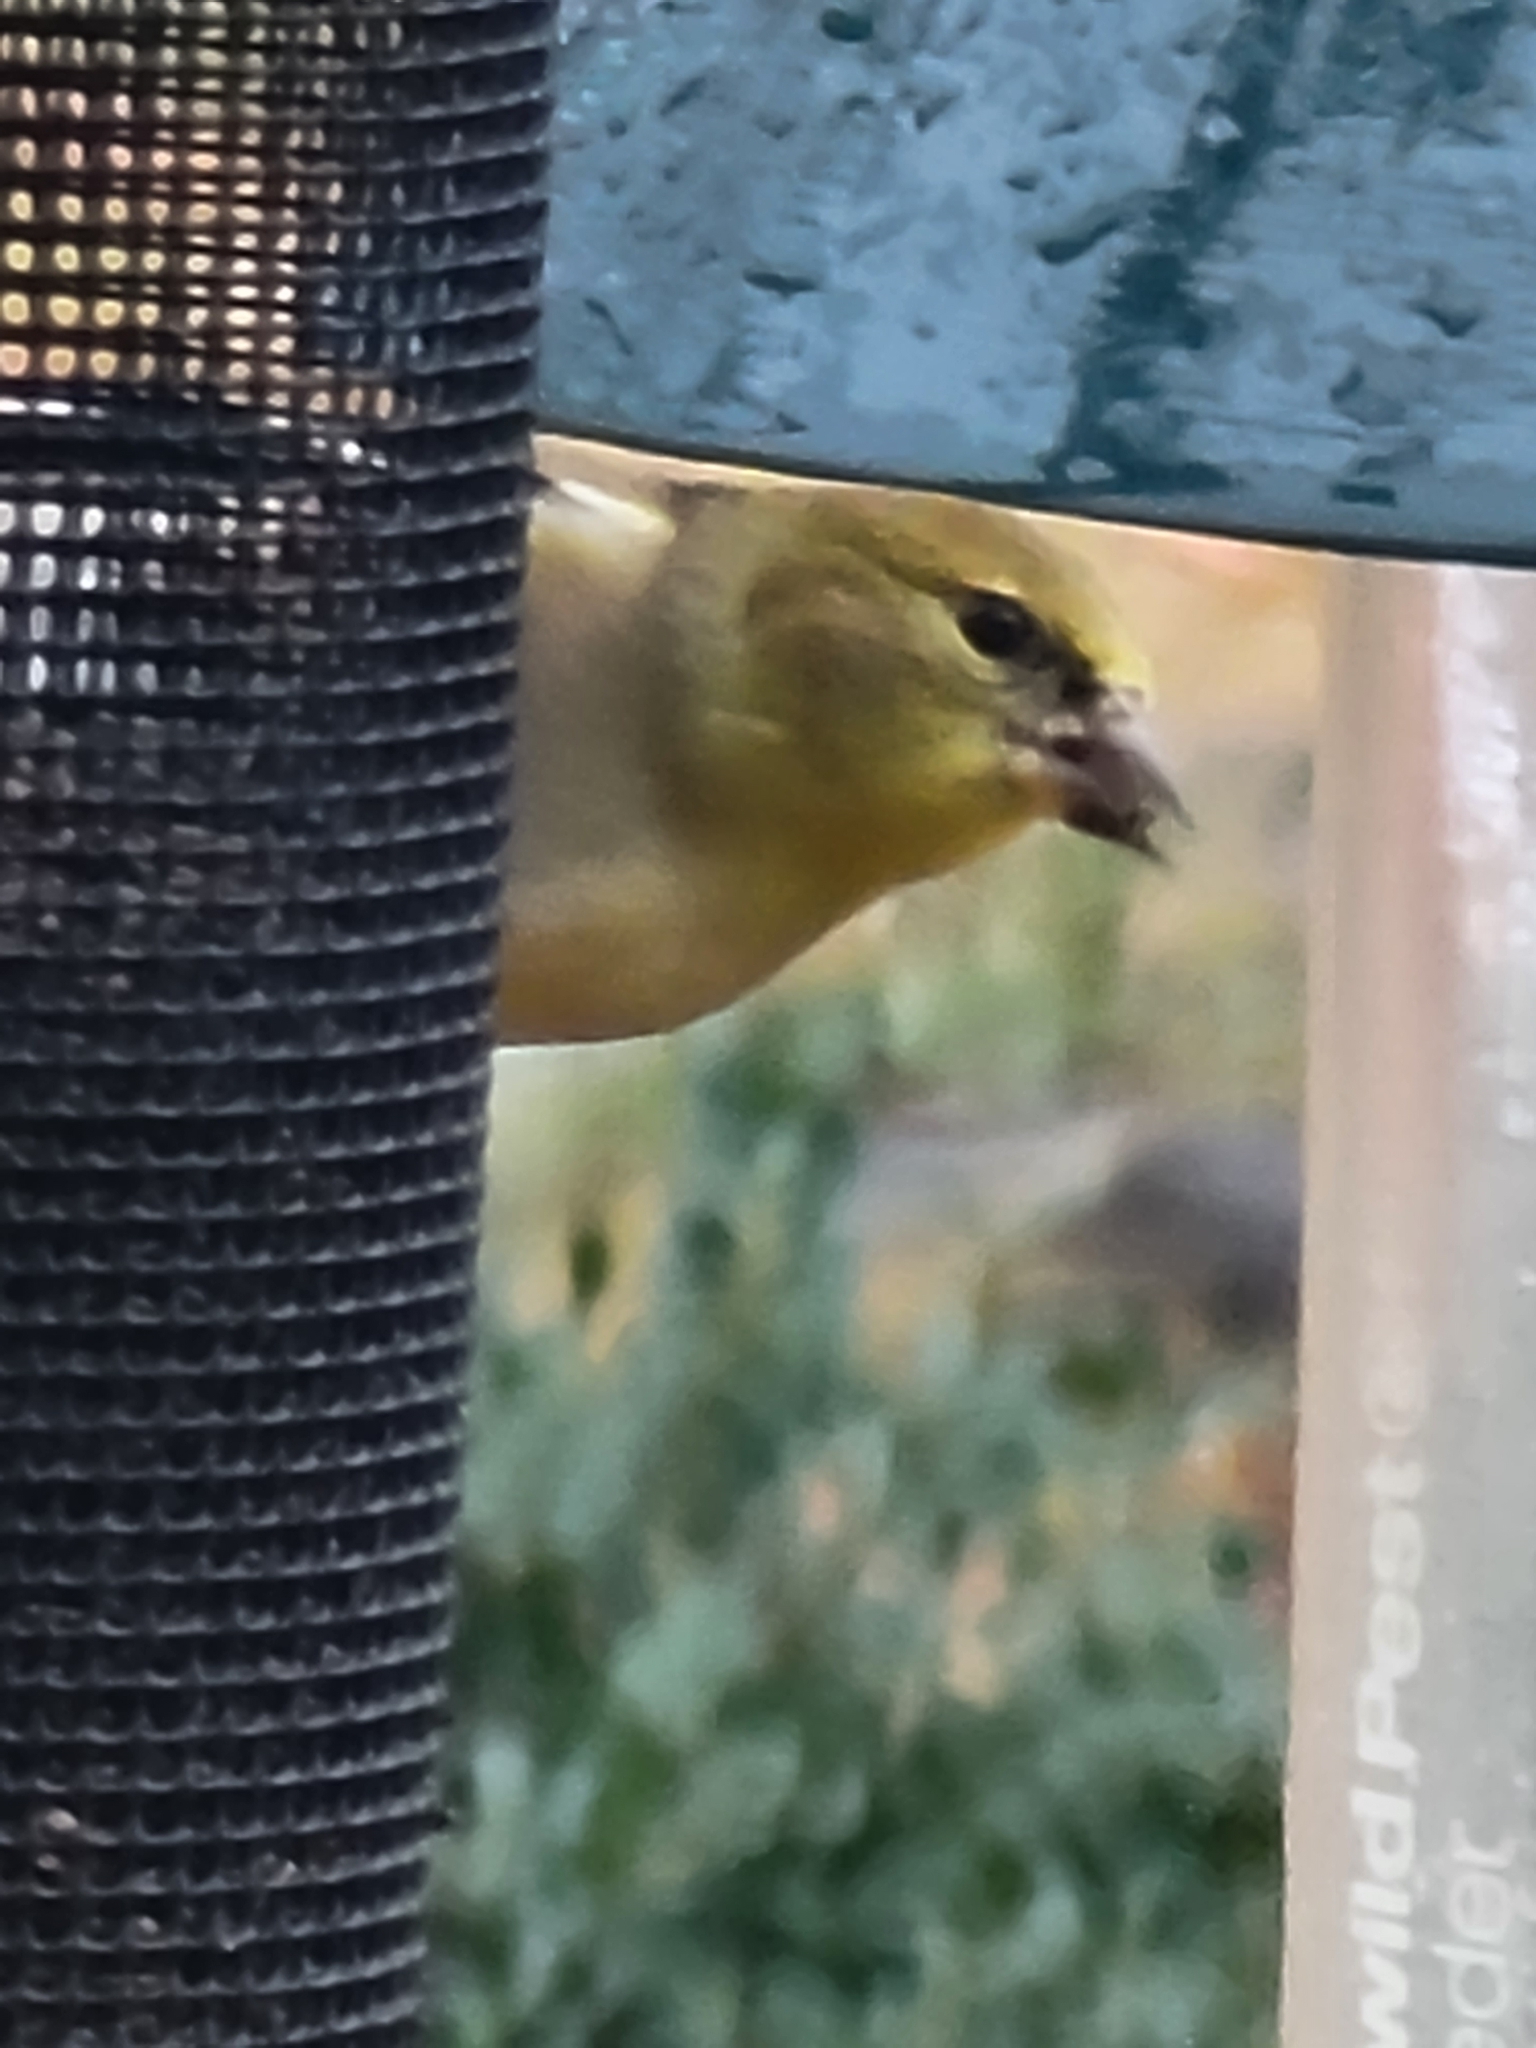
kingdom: Animalia
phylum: Chordata
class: Aves
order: Passeriformes
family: Fringillidae
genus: Spinus
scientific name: Spinus tristis
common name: American goldfinch
